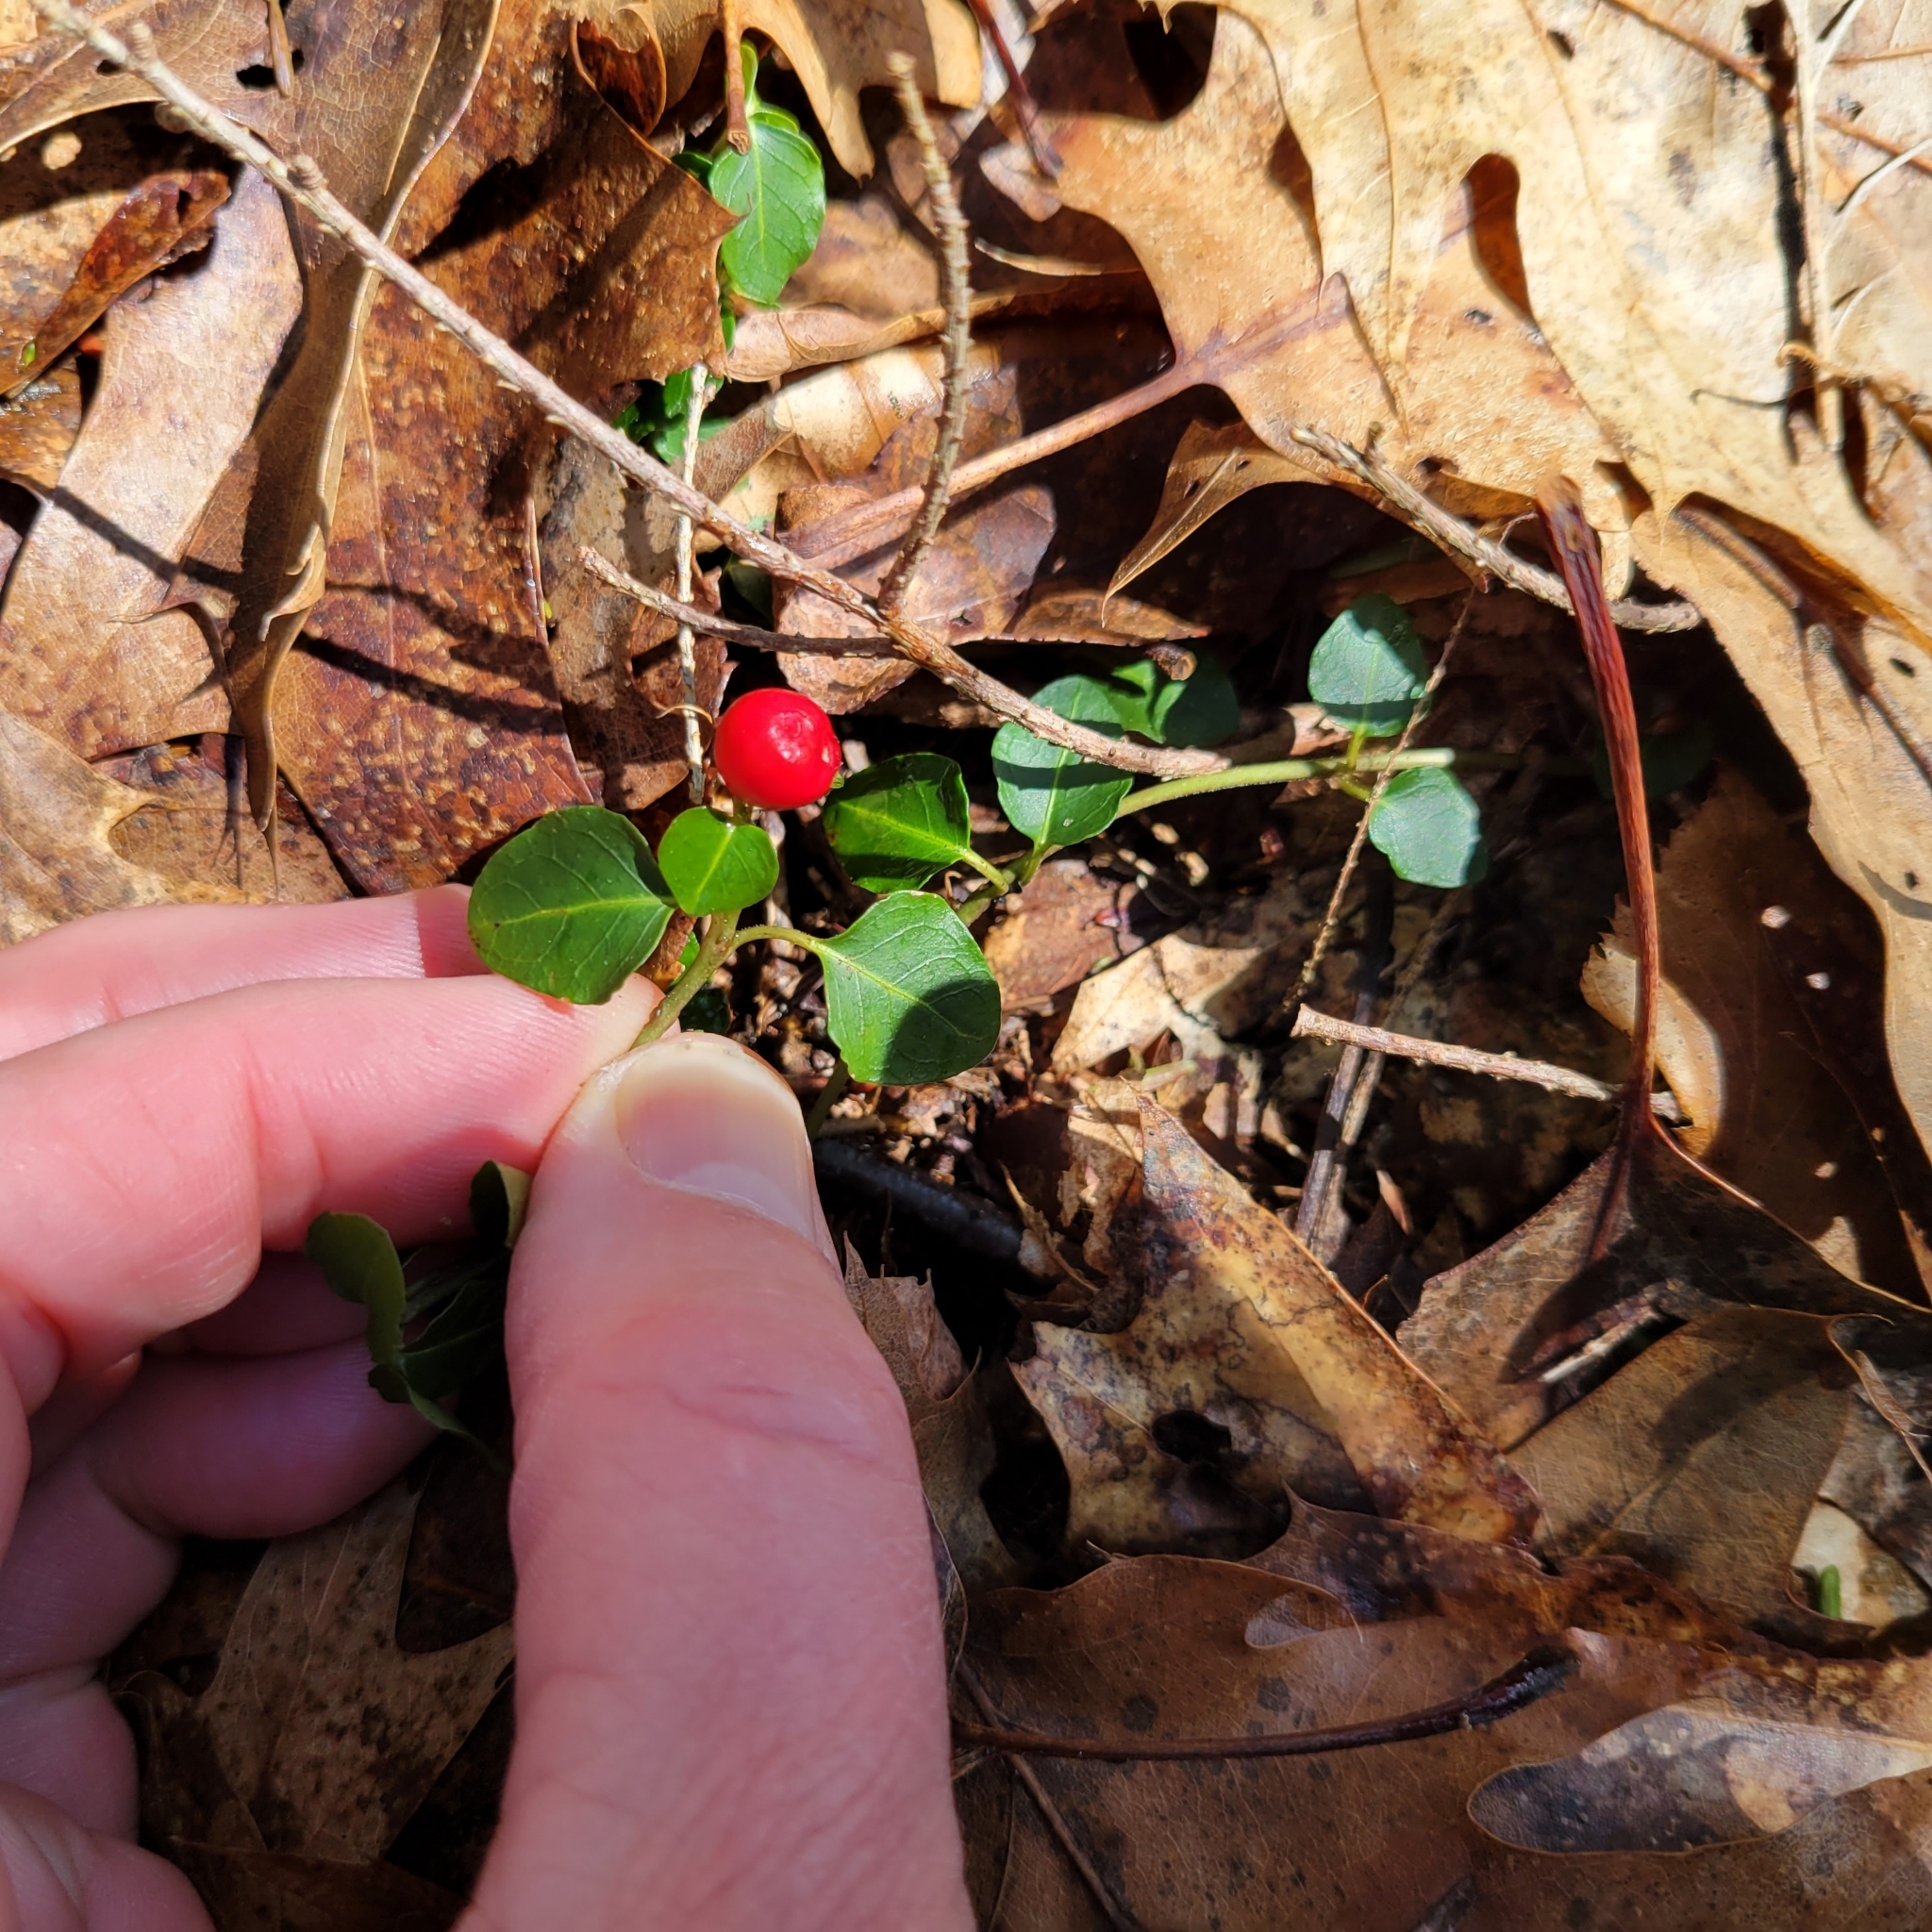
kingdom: Plantae
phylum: Tracheophyta
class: Magnoliopsida
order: Gentianales
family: Rubiaceae
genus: Mitchella
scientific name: Mitchella repens
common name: Partridge-berry
